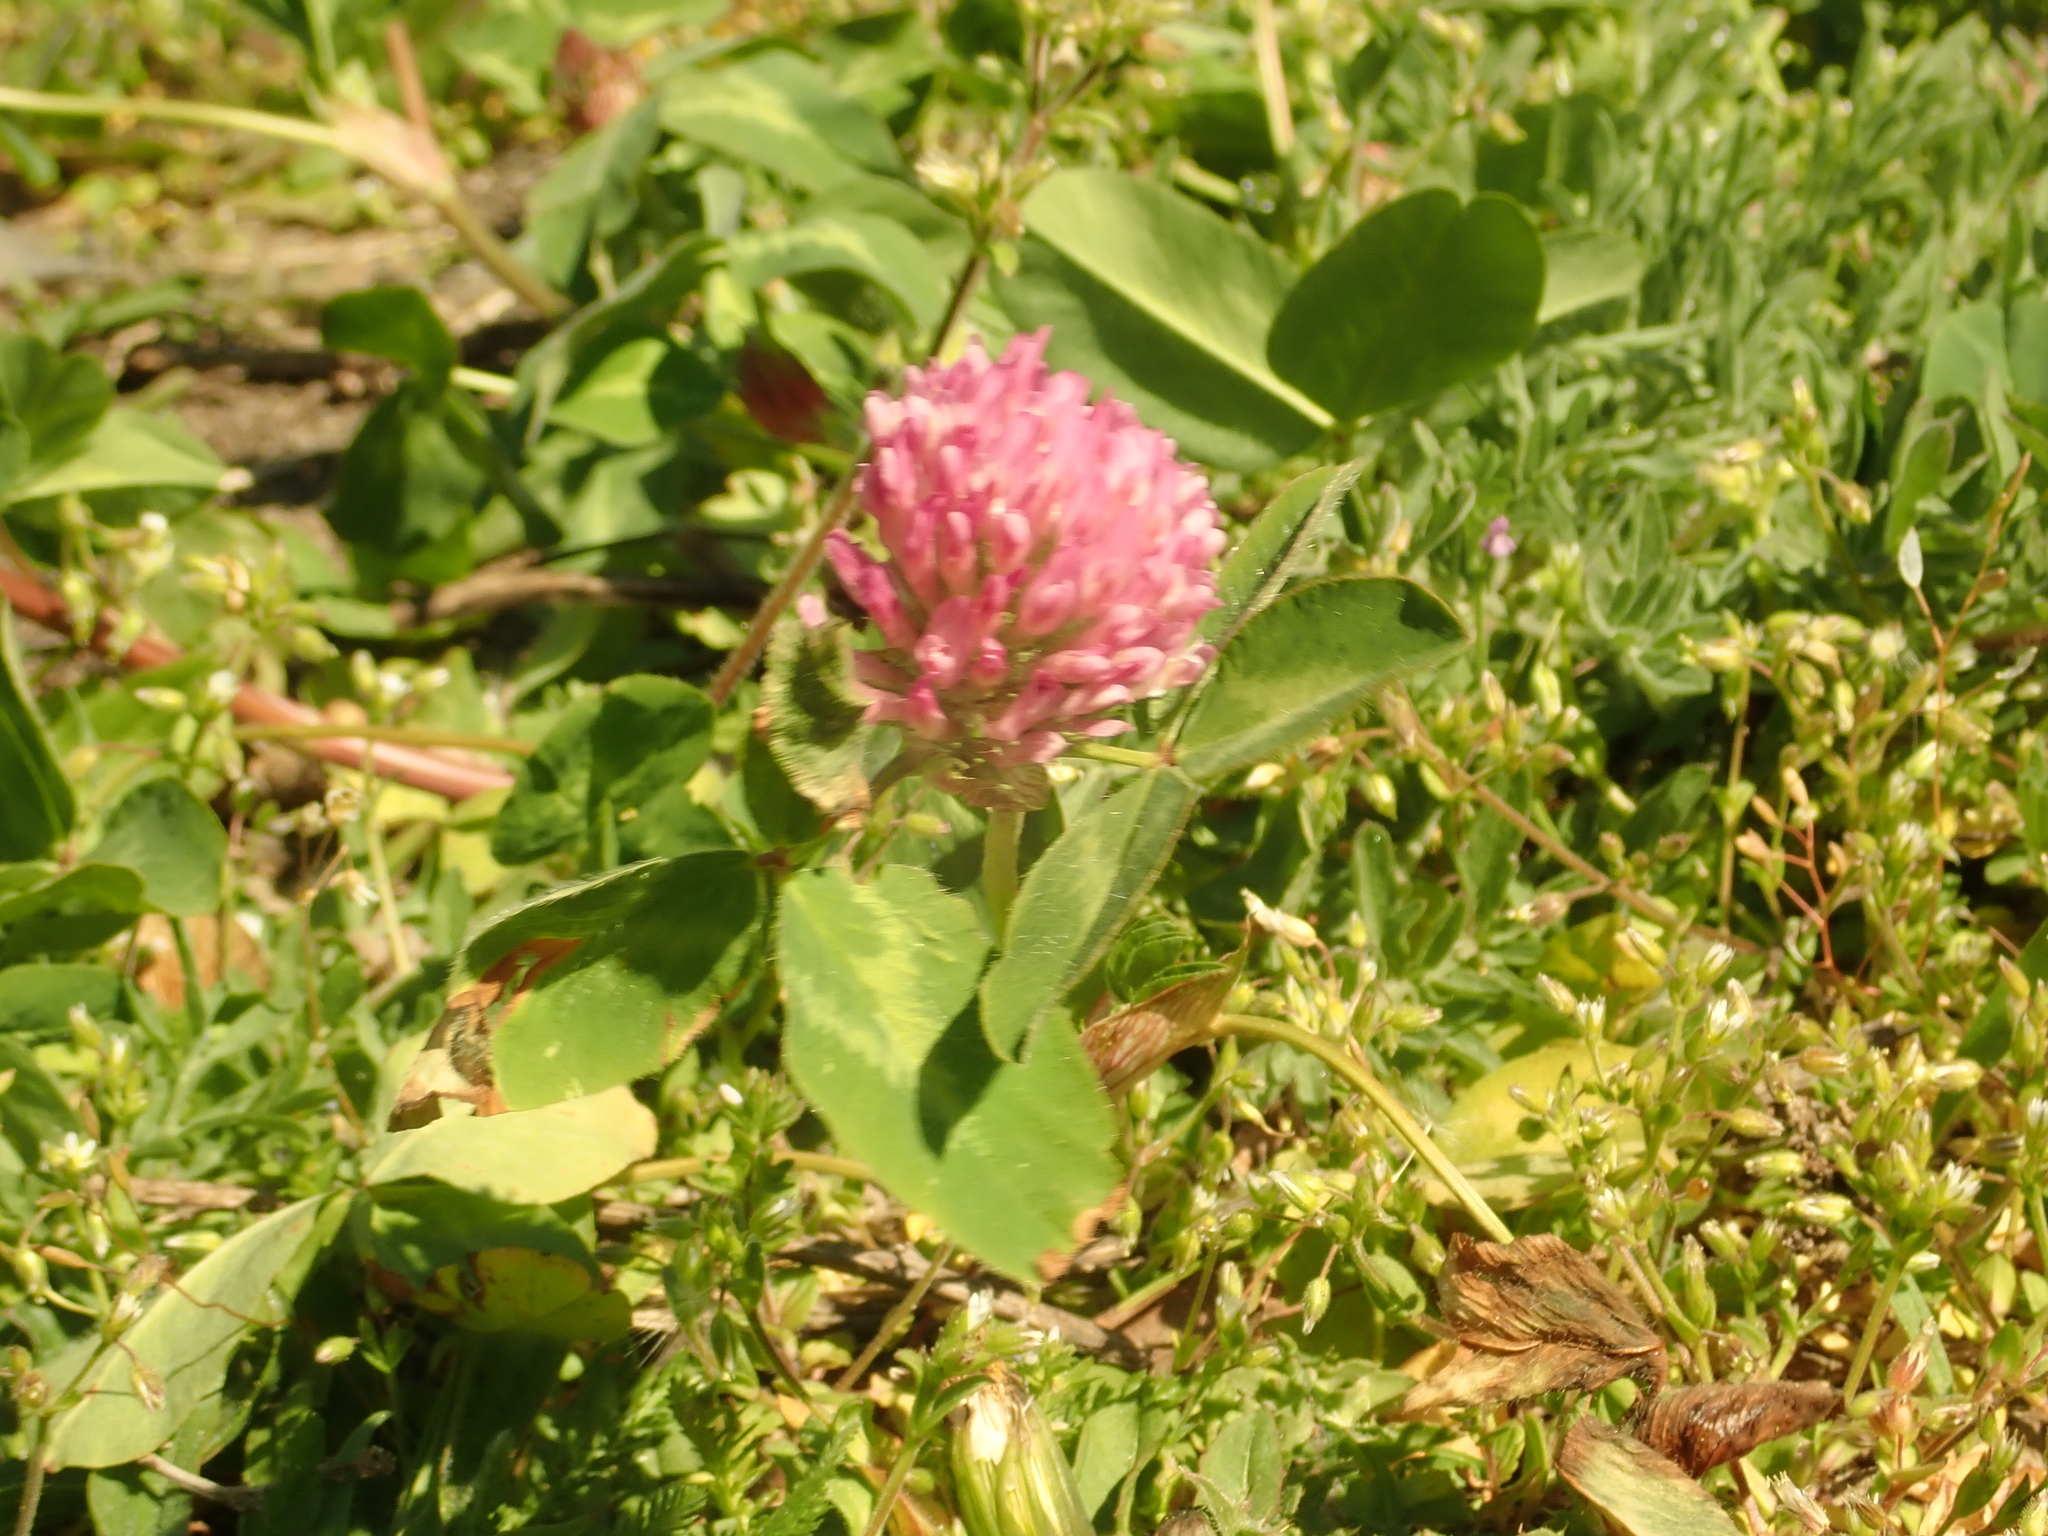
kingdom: Plantae
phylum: Tracheophyta
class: Magnoliopsida
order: Fabales
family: Fabaceae
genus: Trifolium
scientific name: Trifolium pratense
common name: Red clover
